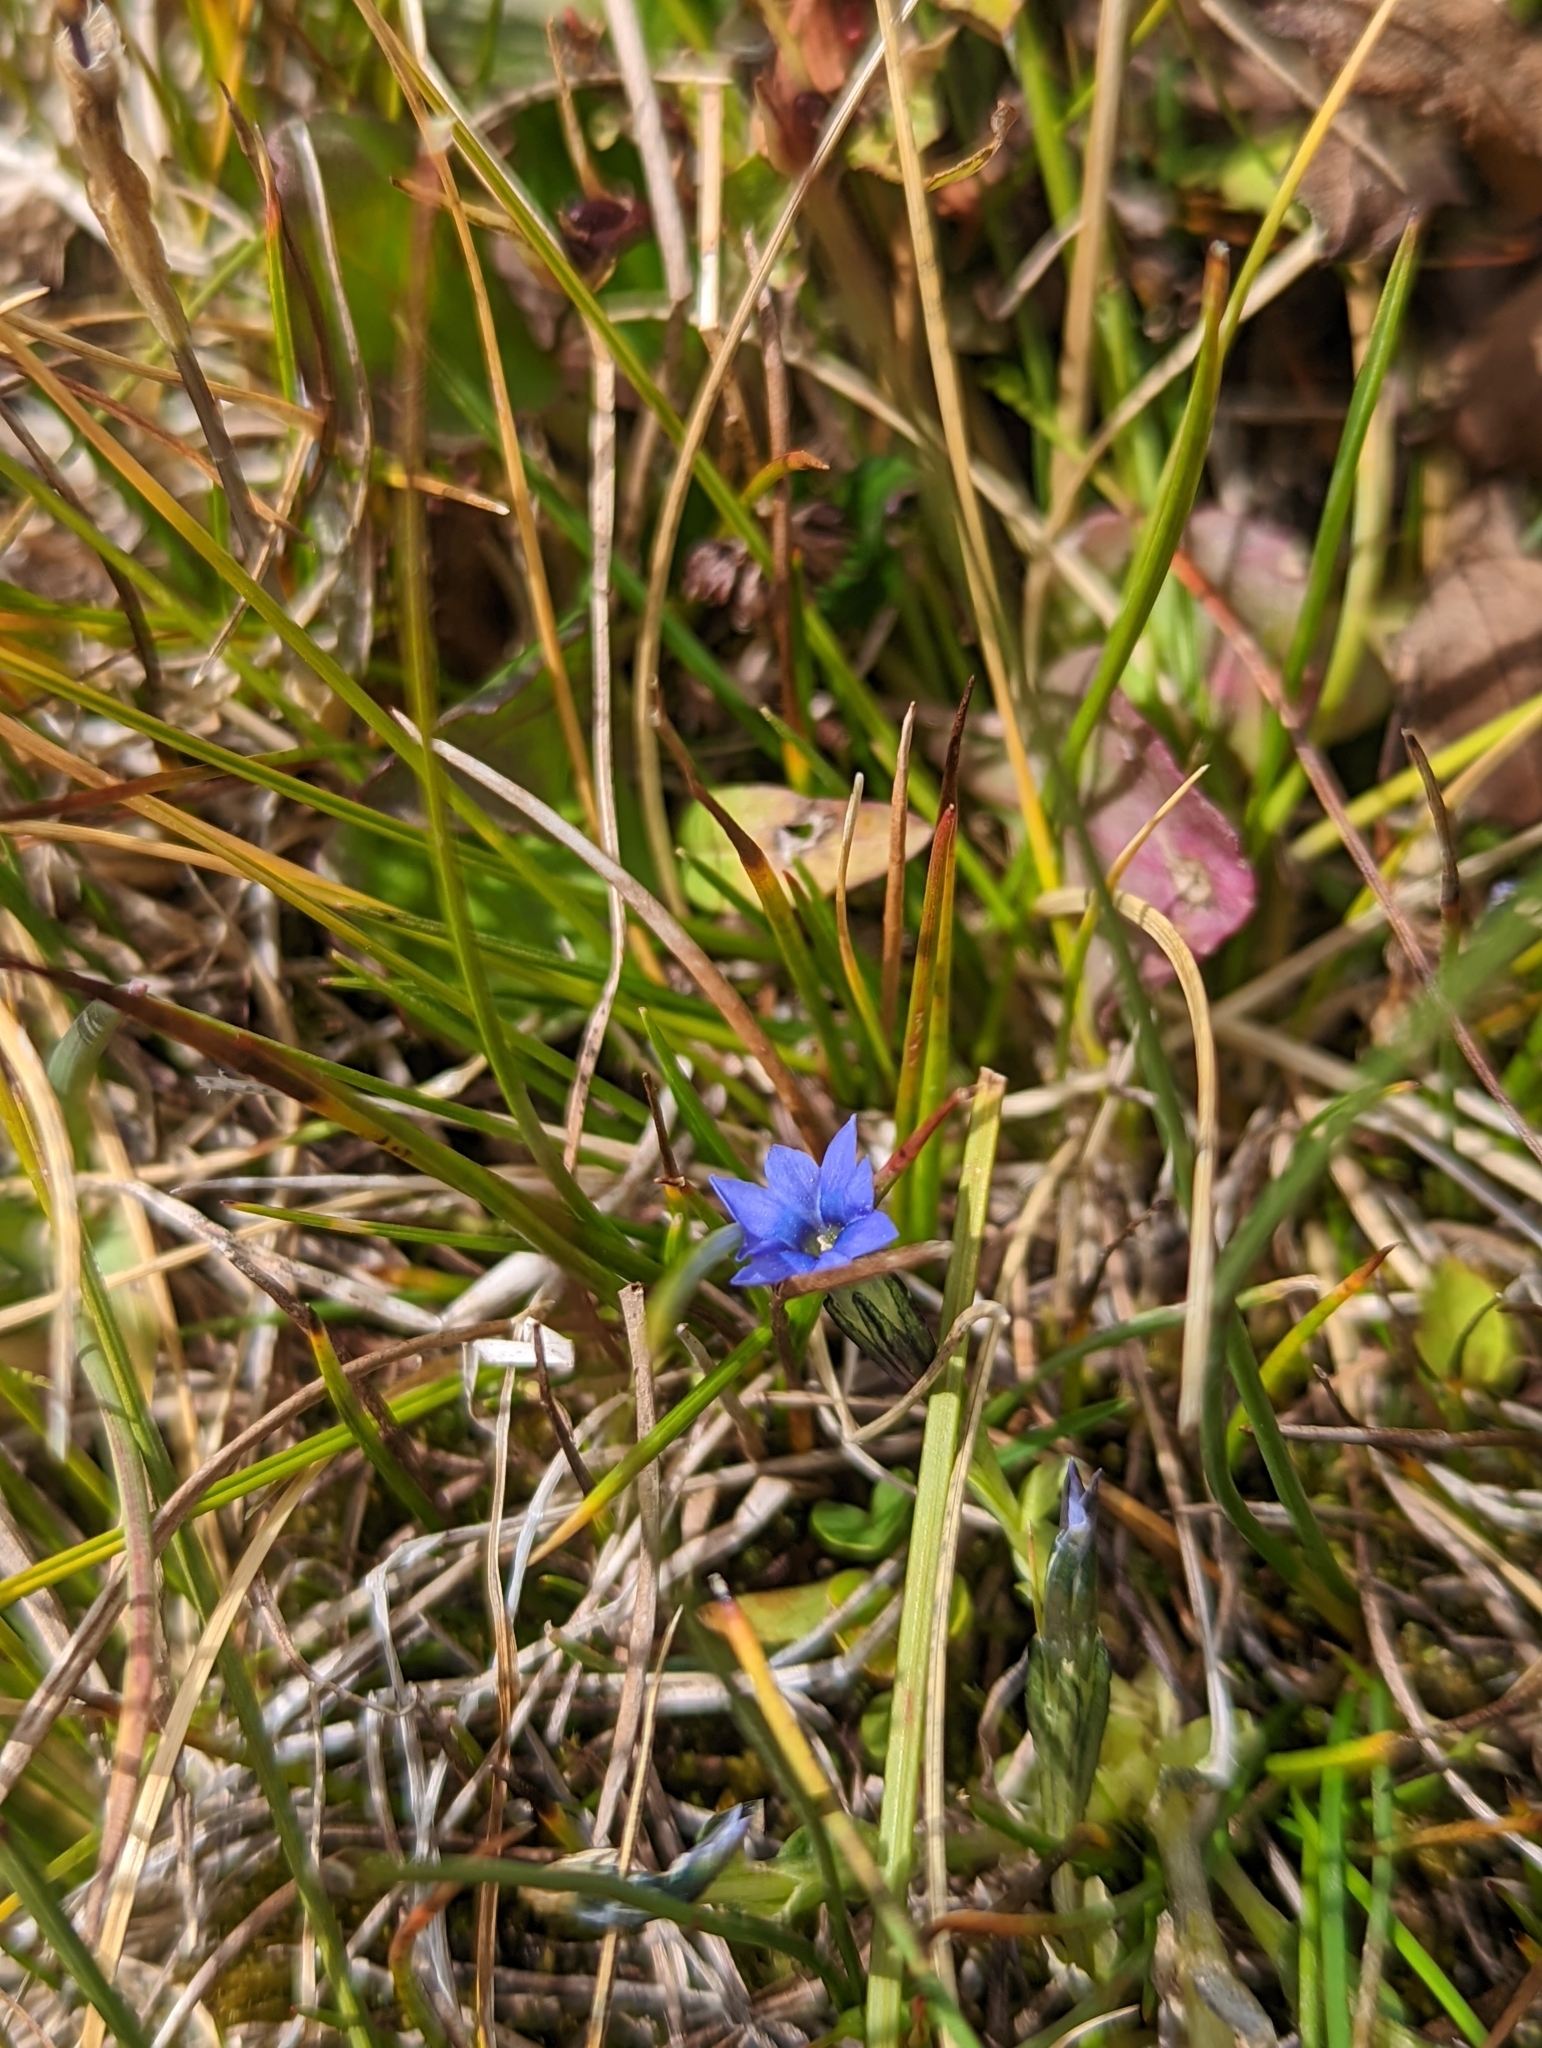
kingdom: Plantae
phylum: Tracheophyta
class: Magnoliopsida
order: Gentianales
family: Gentianaceae
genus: Gentiana
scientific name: Gentiana prostrata
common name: Moss gentian
